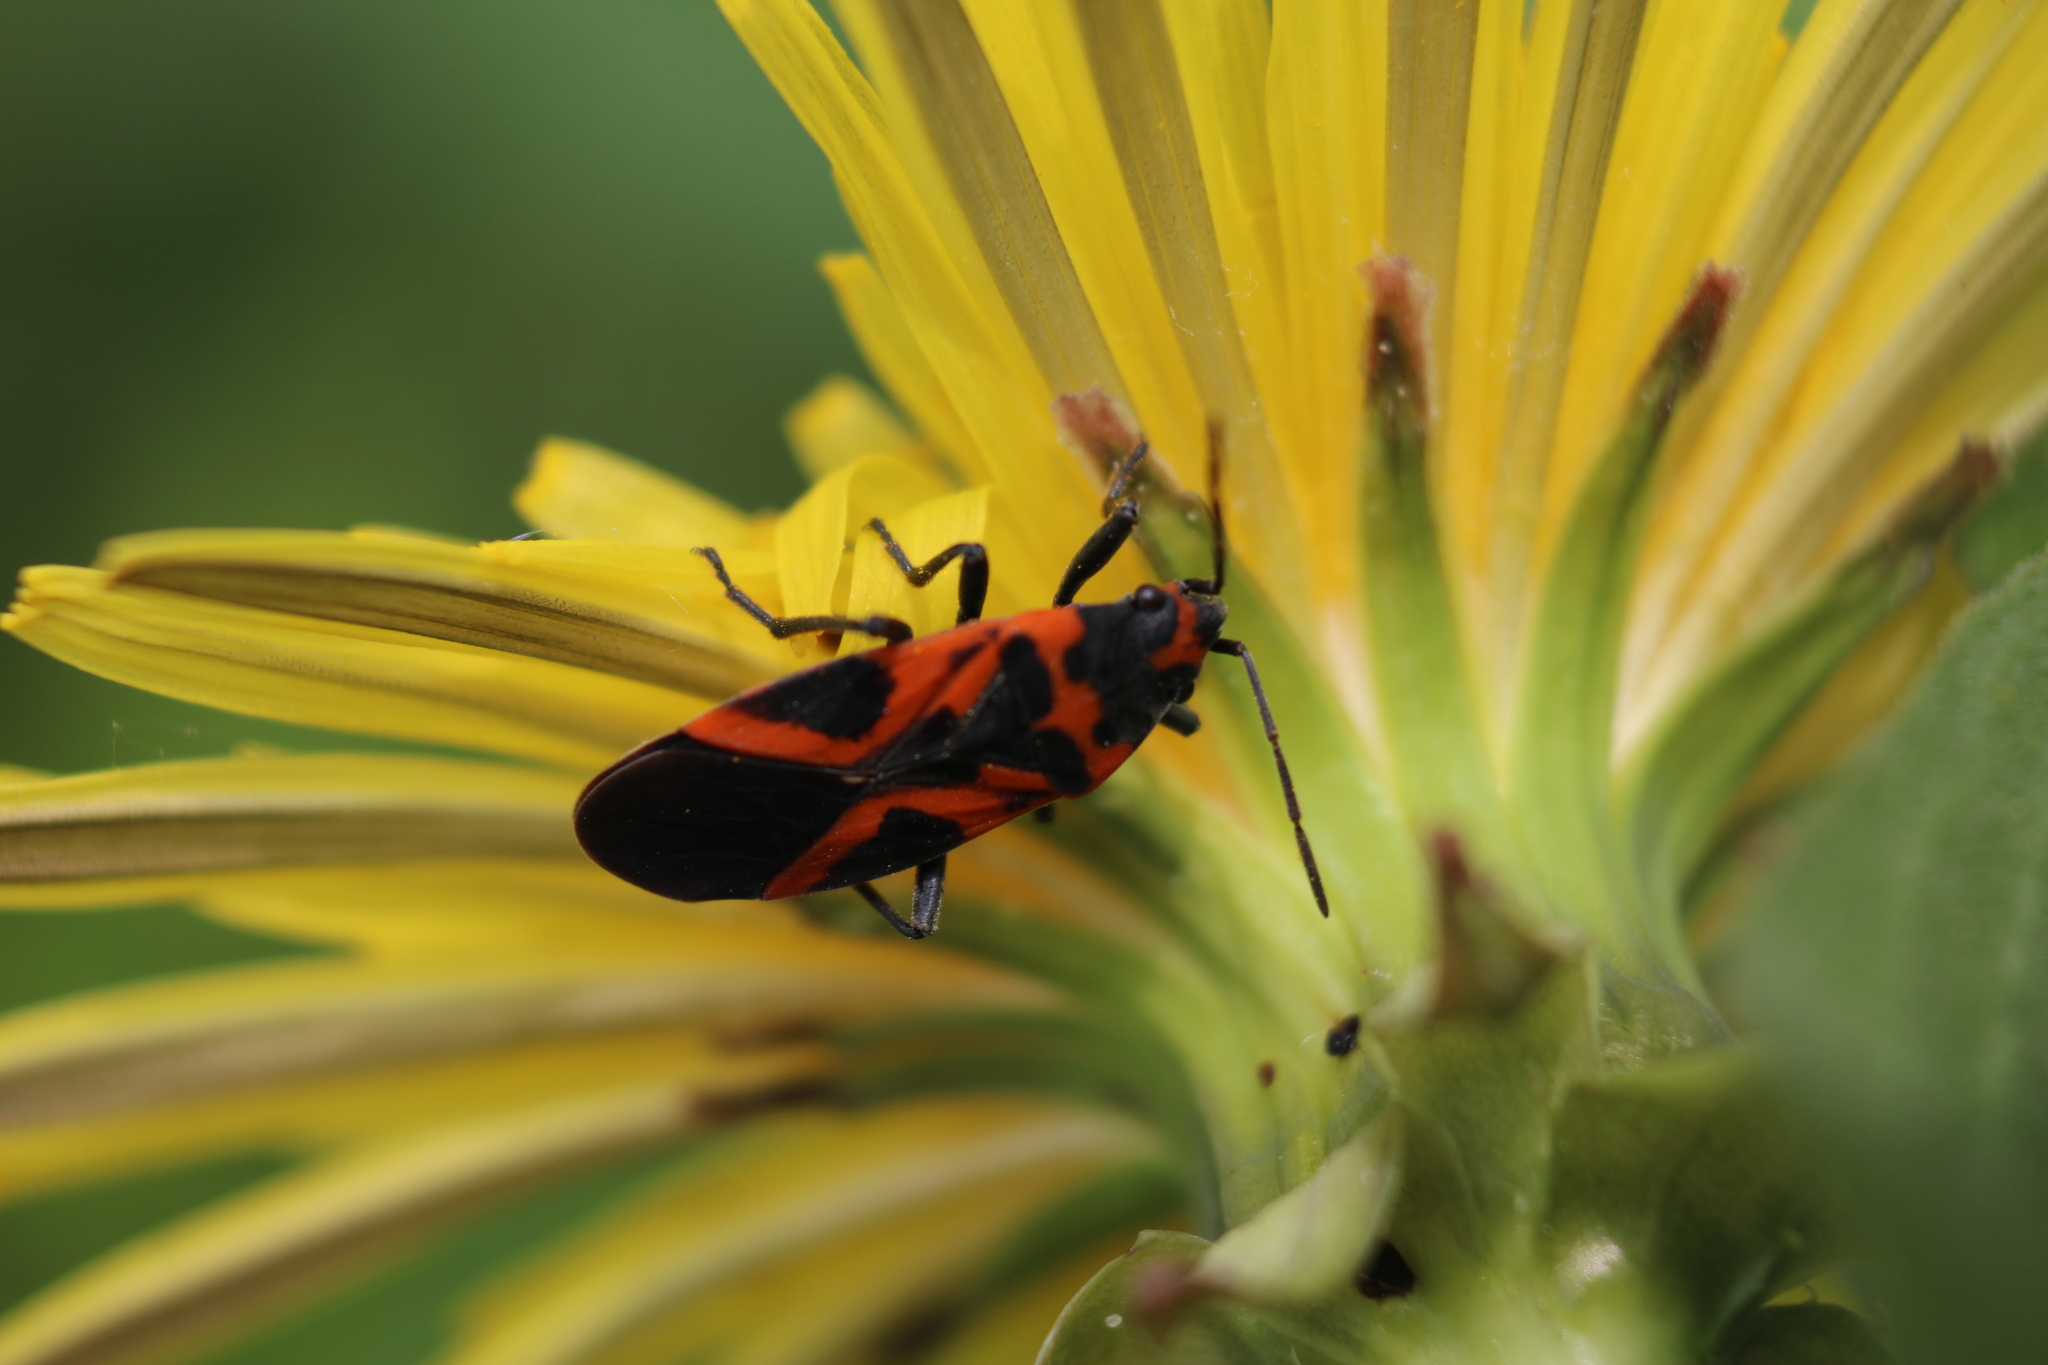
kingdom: Animalia
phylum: Arthropoda
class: Insecta
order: Hemiptera
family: Lygaeidae
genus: Lygaeus
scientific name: Lygaeus turcicus
